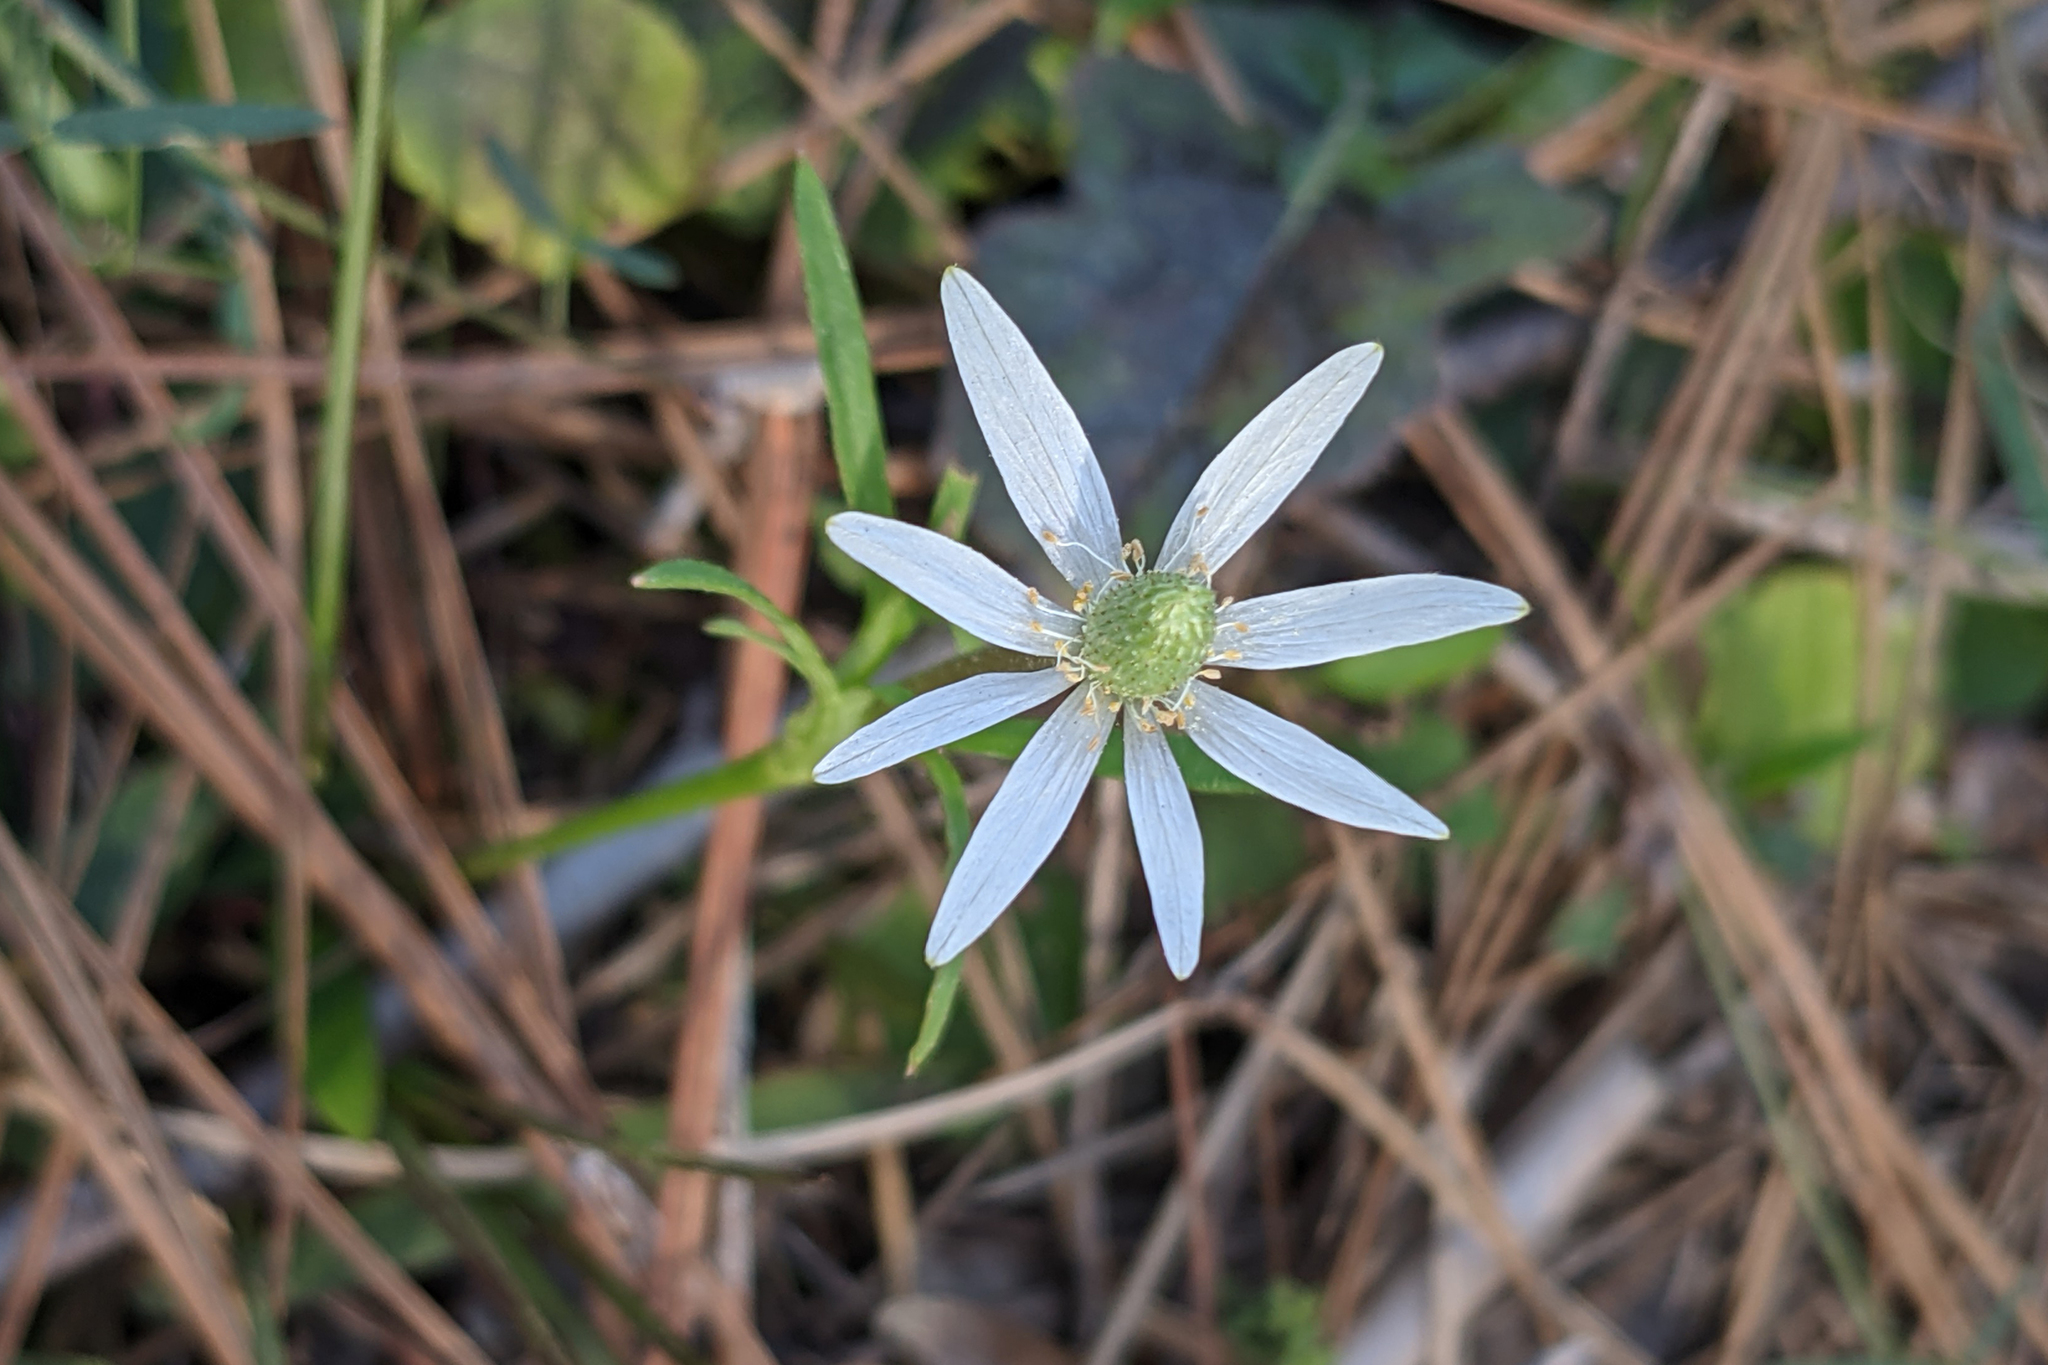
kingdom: Plantae
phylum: Tracheophyta
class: Magnoliopsida
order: Ranunculales
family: Ranunculaceae
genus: Anemone
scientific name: Anemone berlandieri
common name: Ten-petal anemone
